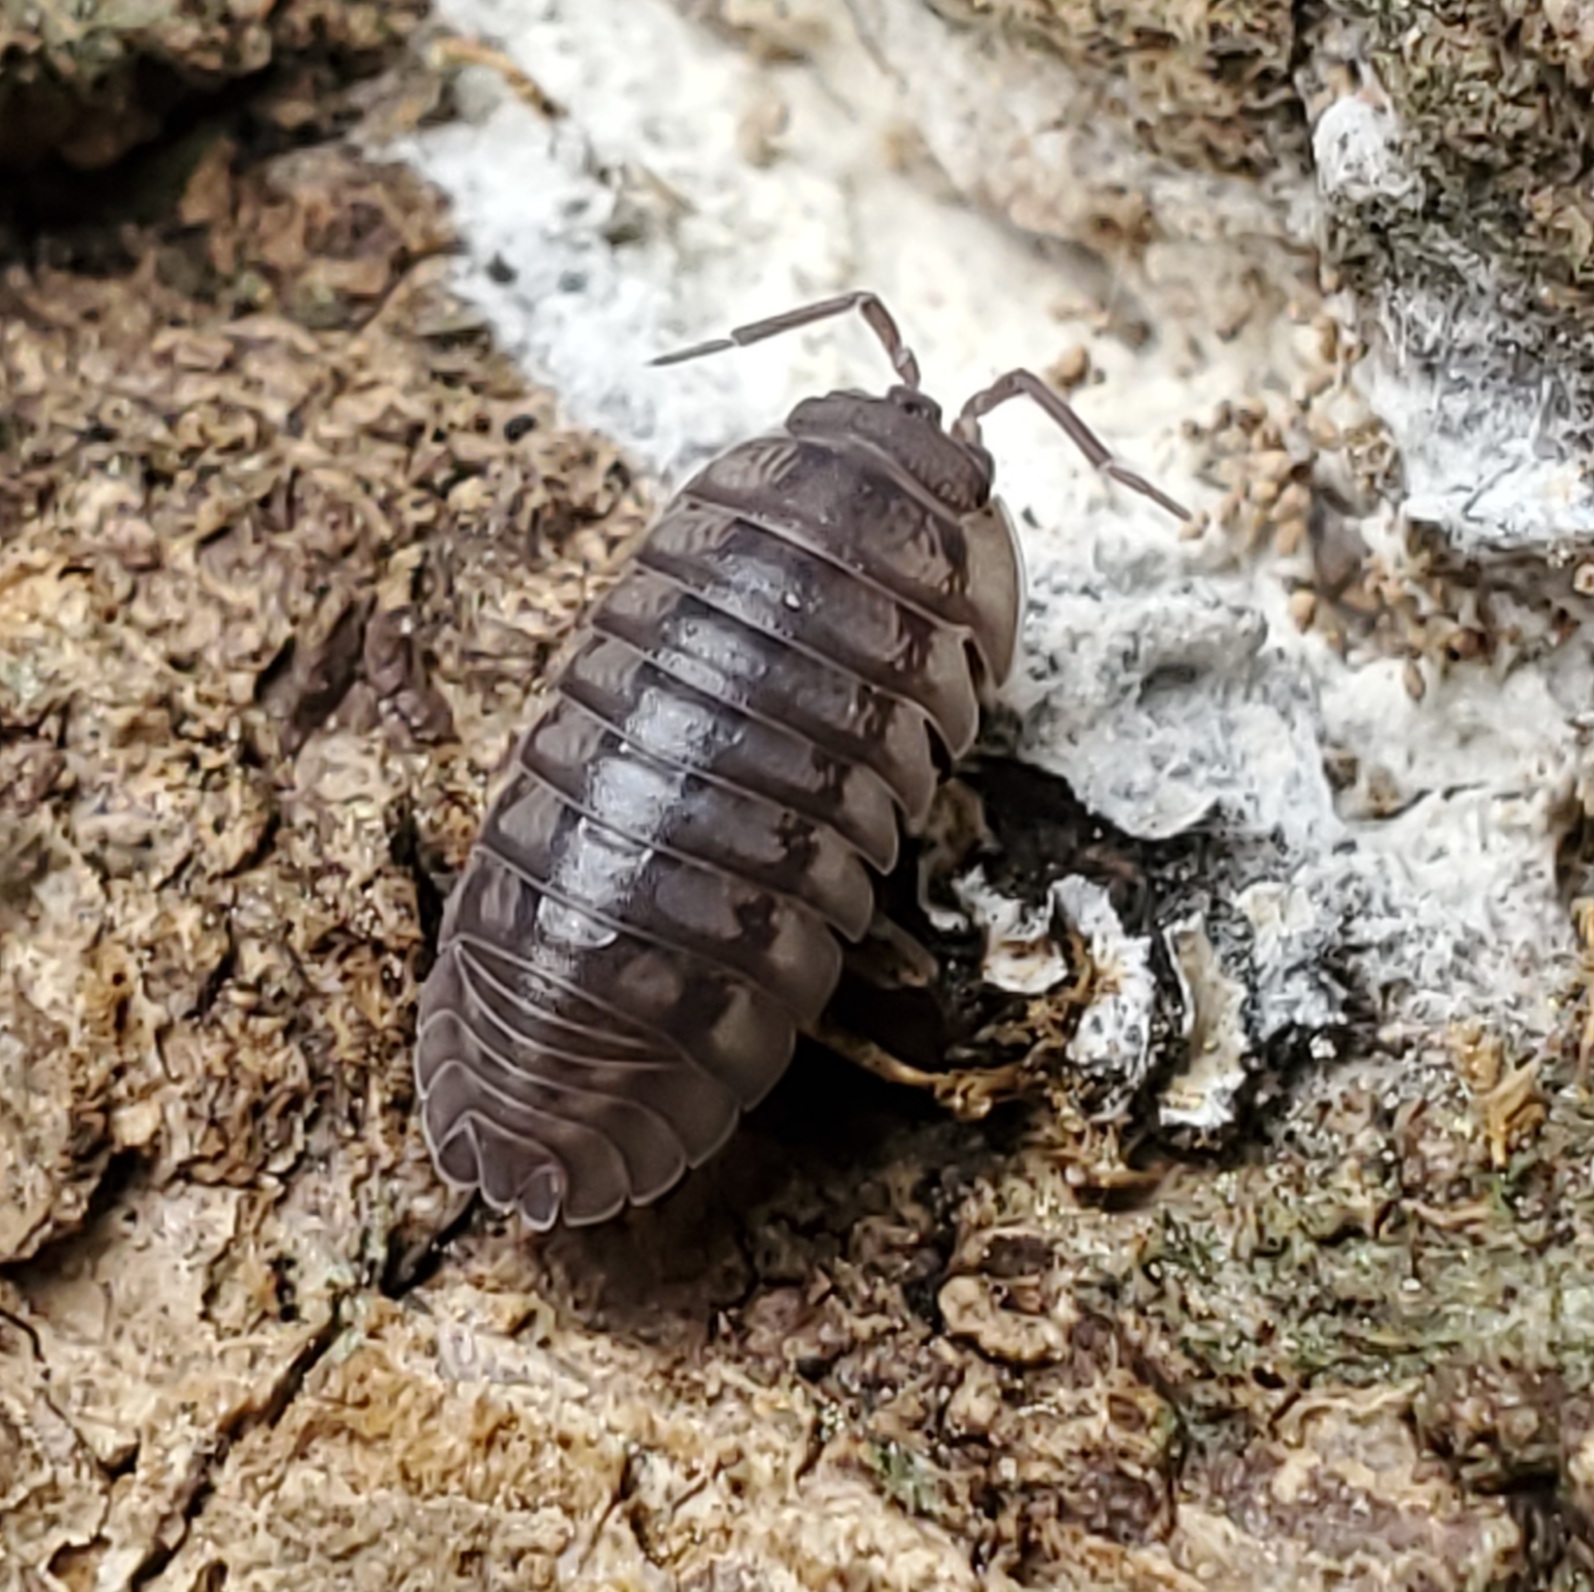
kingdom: Animalia
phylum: Arthropoda
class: Malacostraca
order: Isopoda
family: Armadillidiidae
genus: Armadillidium
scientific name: Armadillidium nasatum
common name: Isopod
